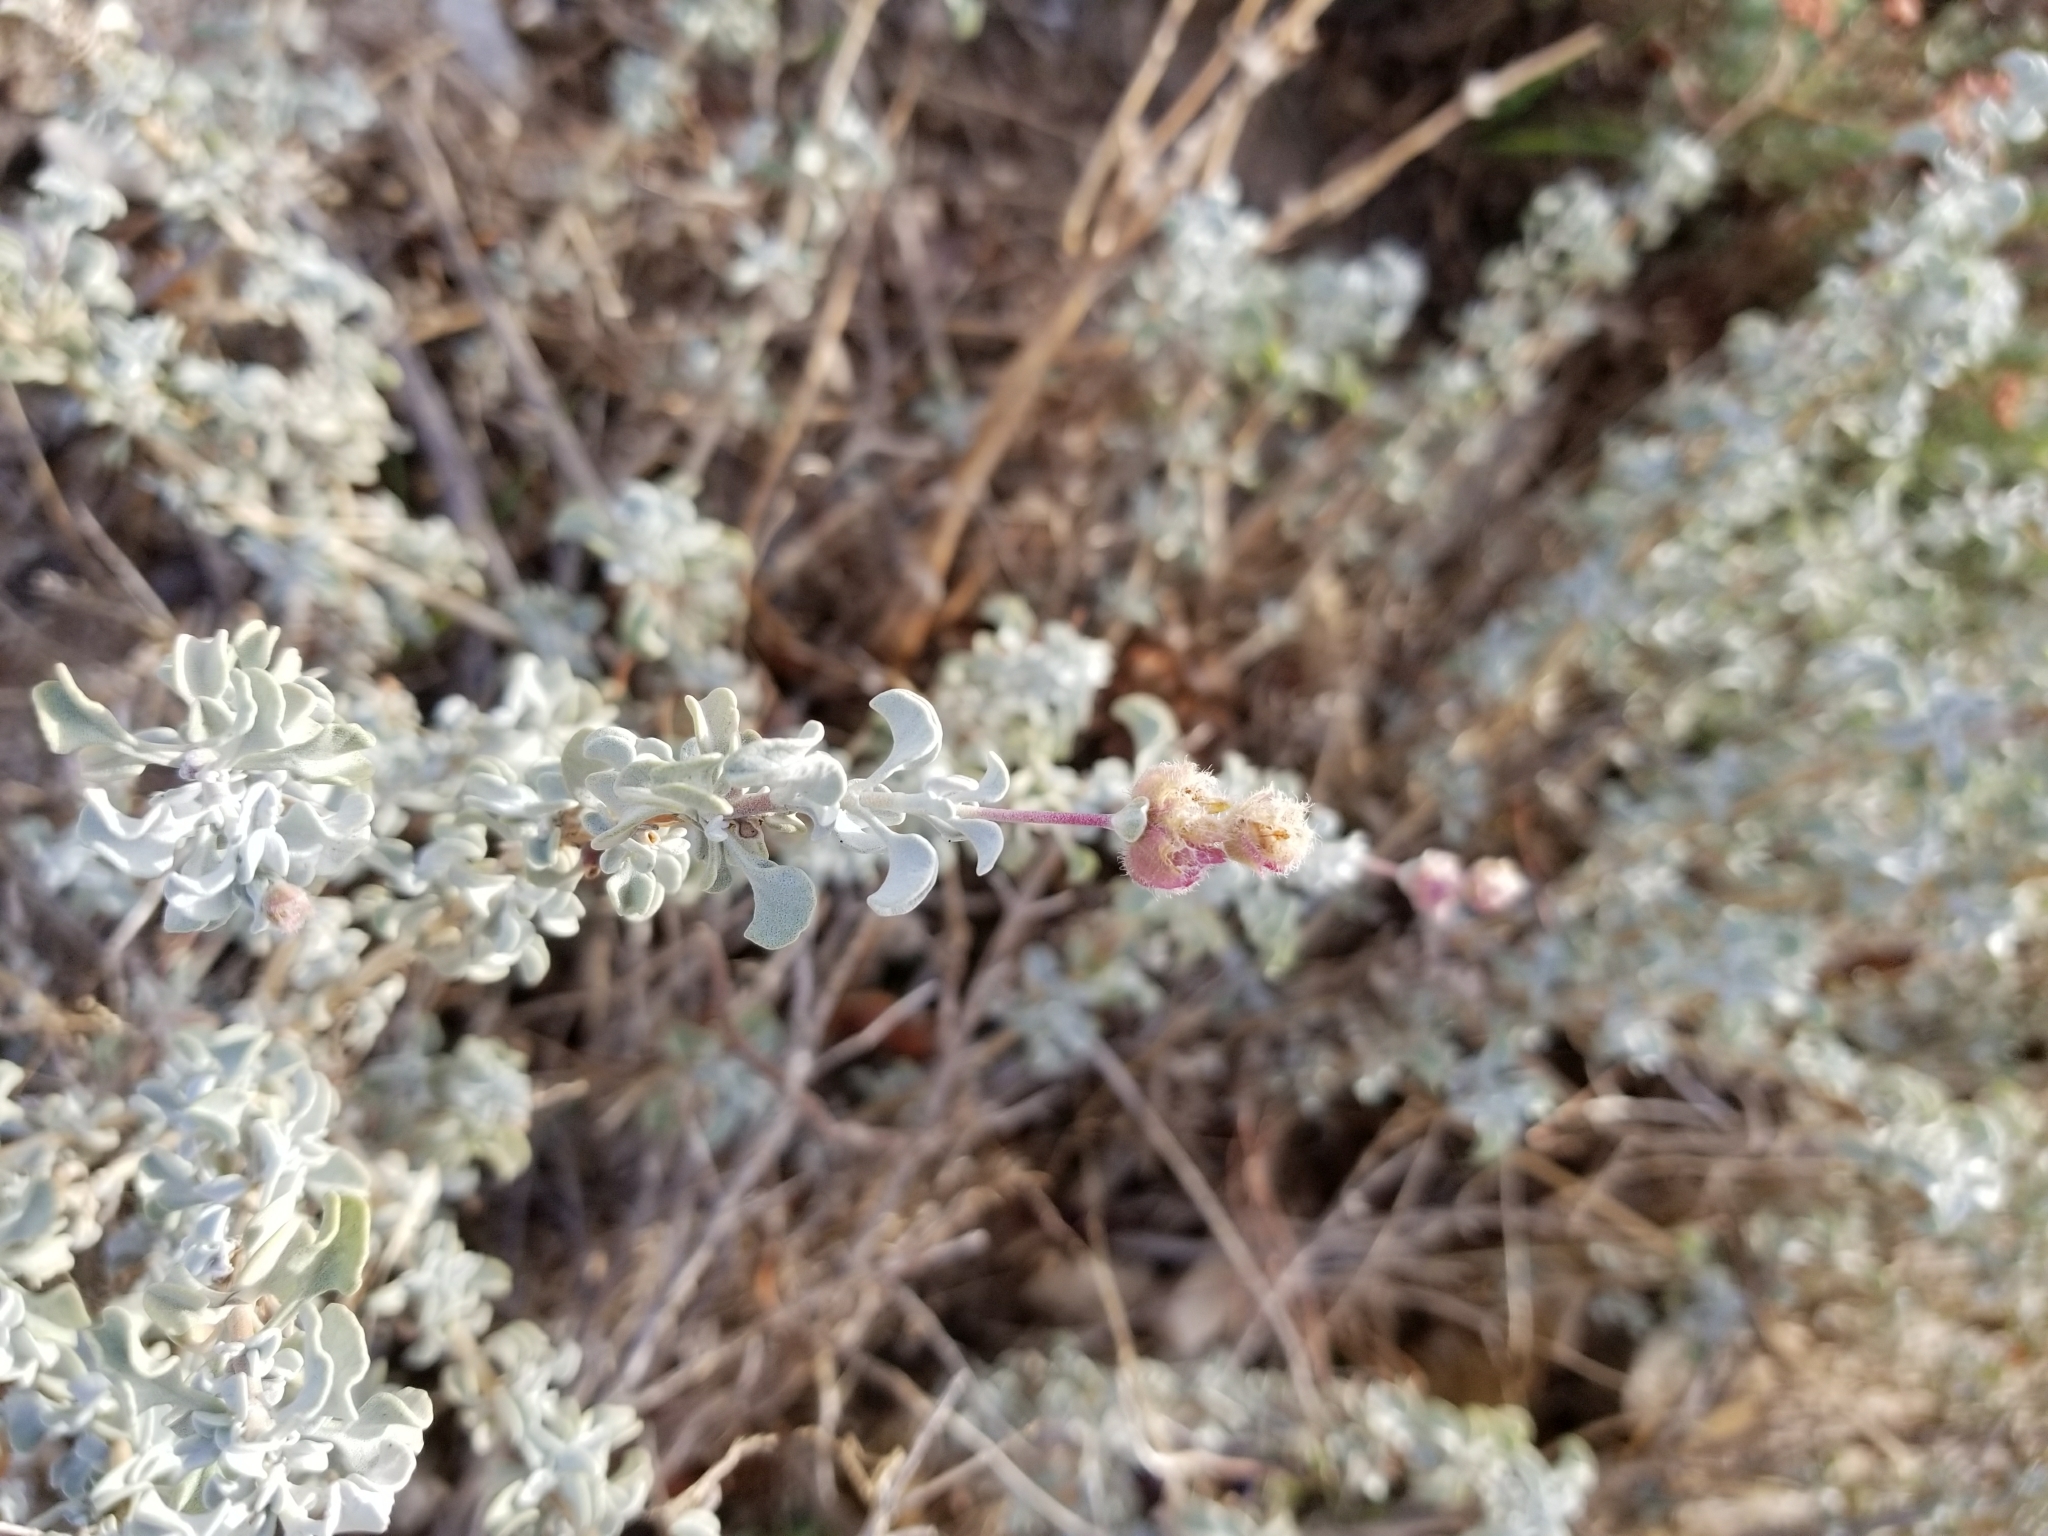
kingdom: Plantae
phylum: Tracheophyta
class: Magnoliopsida
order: Lamiales
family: Lamiaceae
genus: Salvia
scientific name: Salvia dorrii
